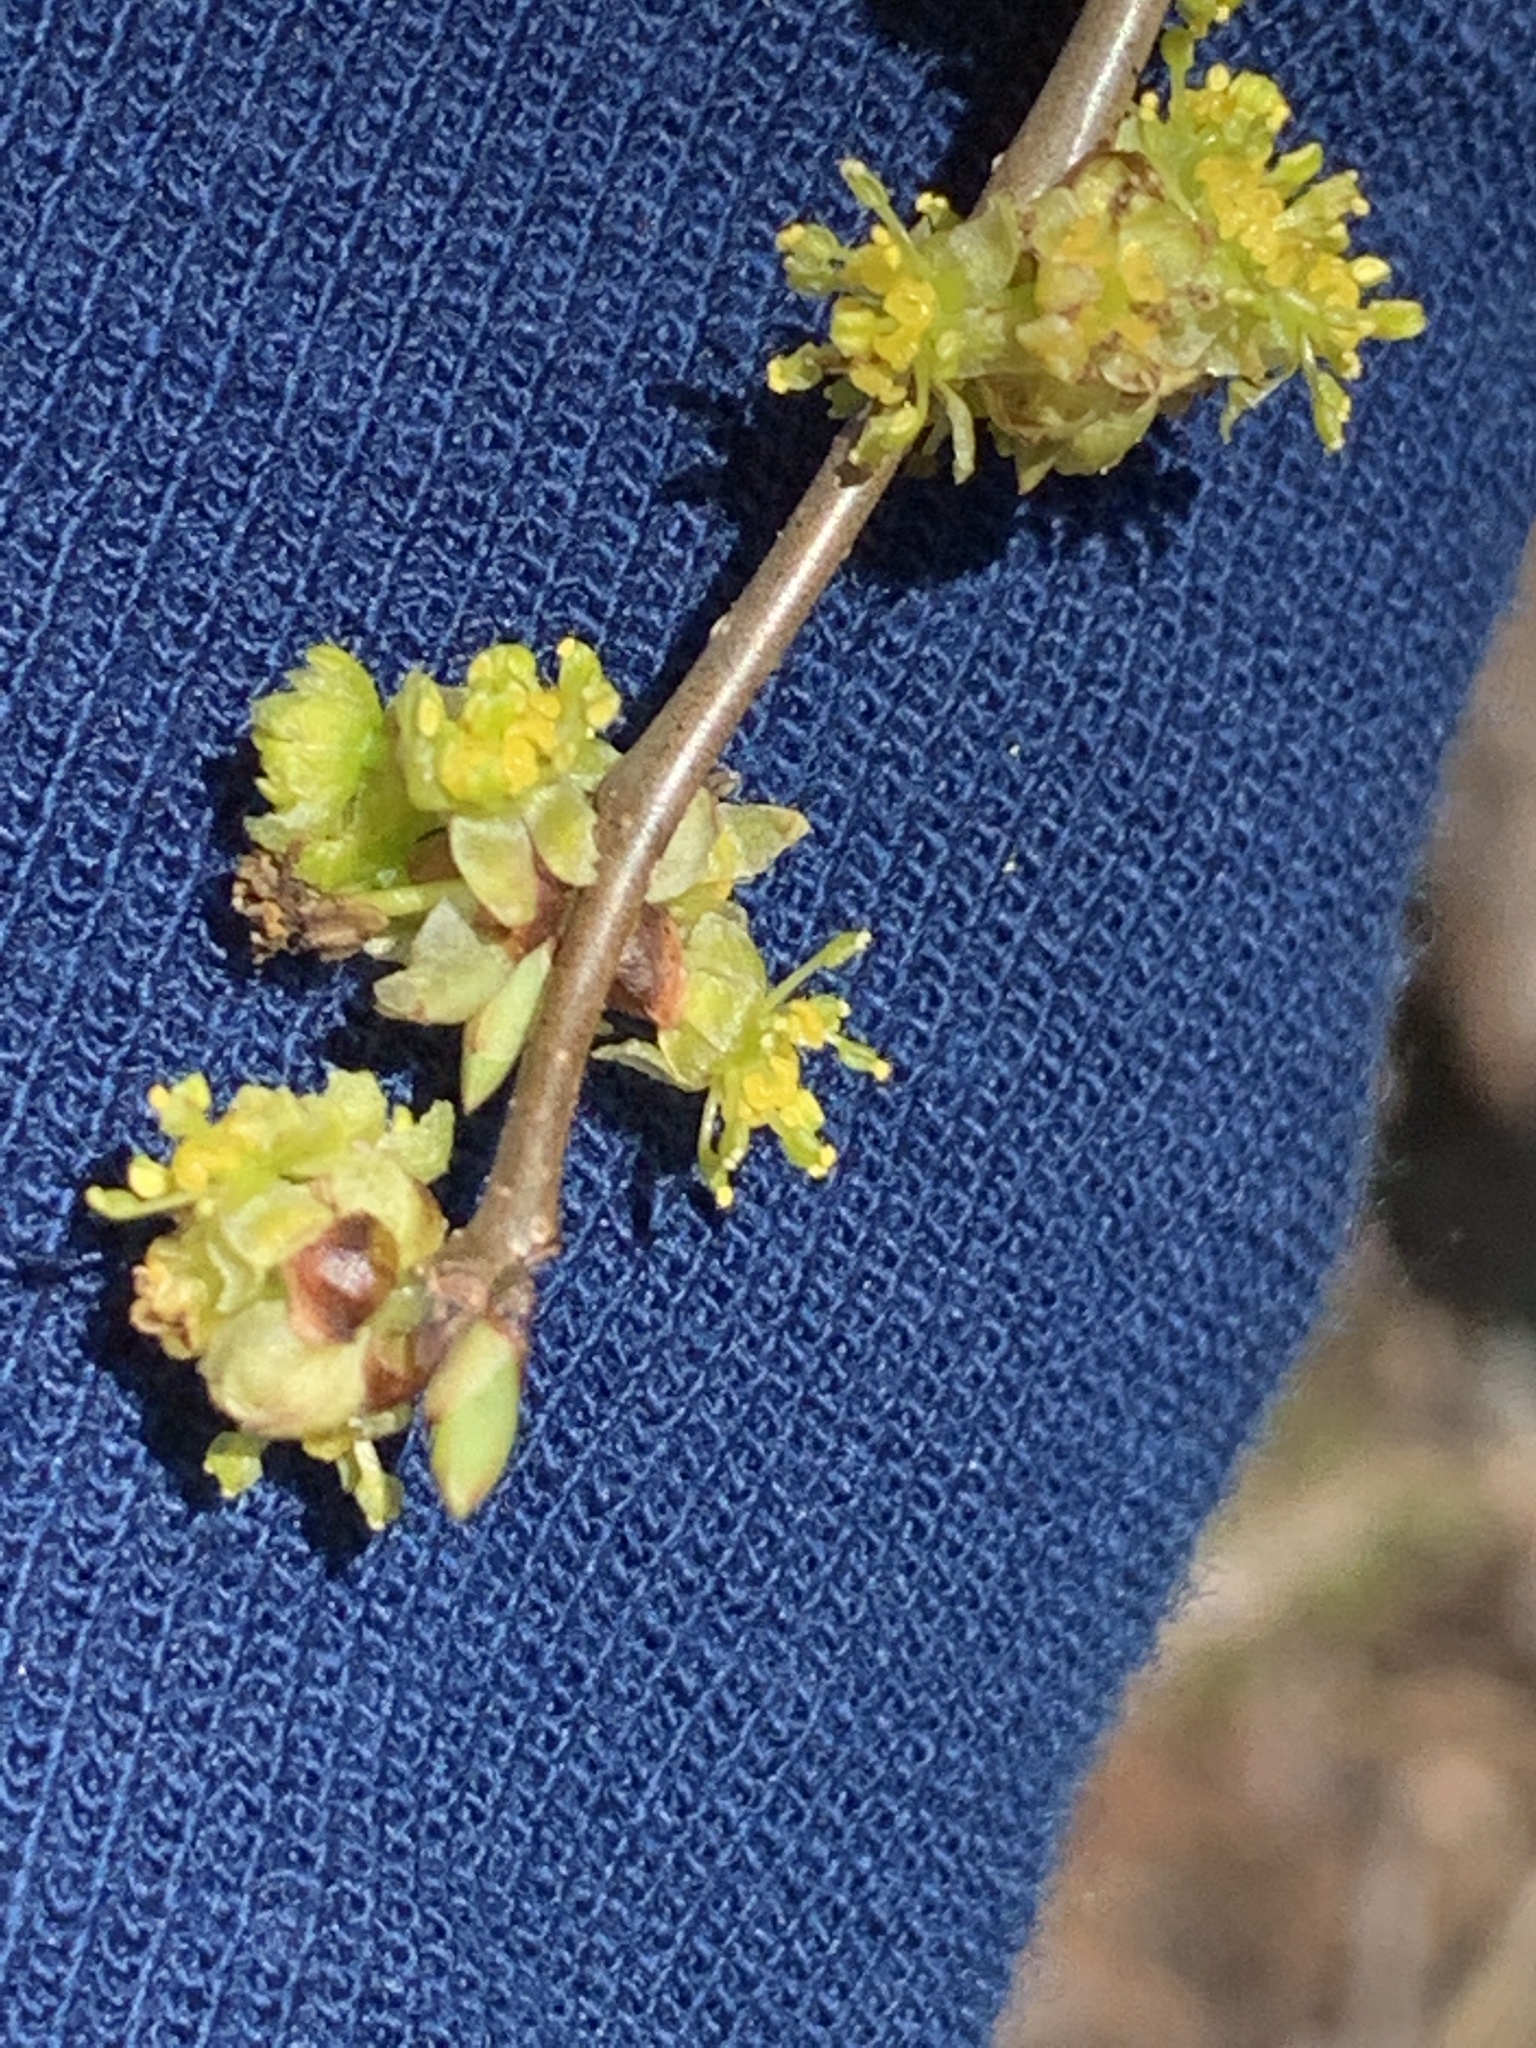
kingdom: Plantae
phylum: Tracheophyta
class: Magnoliopsida
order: Laurales
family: Lauraceae
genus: Lindera
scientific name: Lindera benzoin
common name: Spicebush
